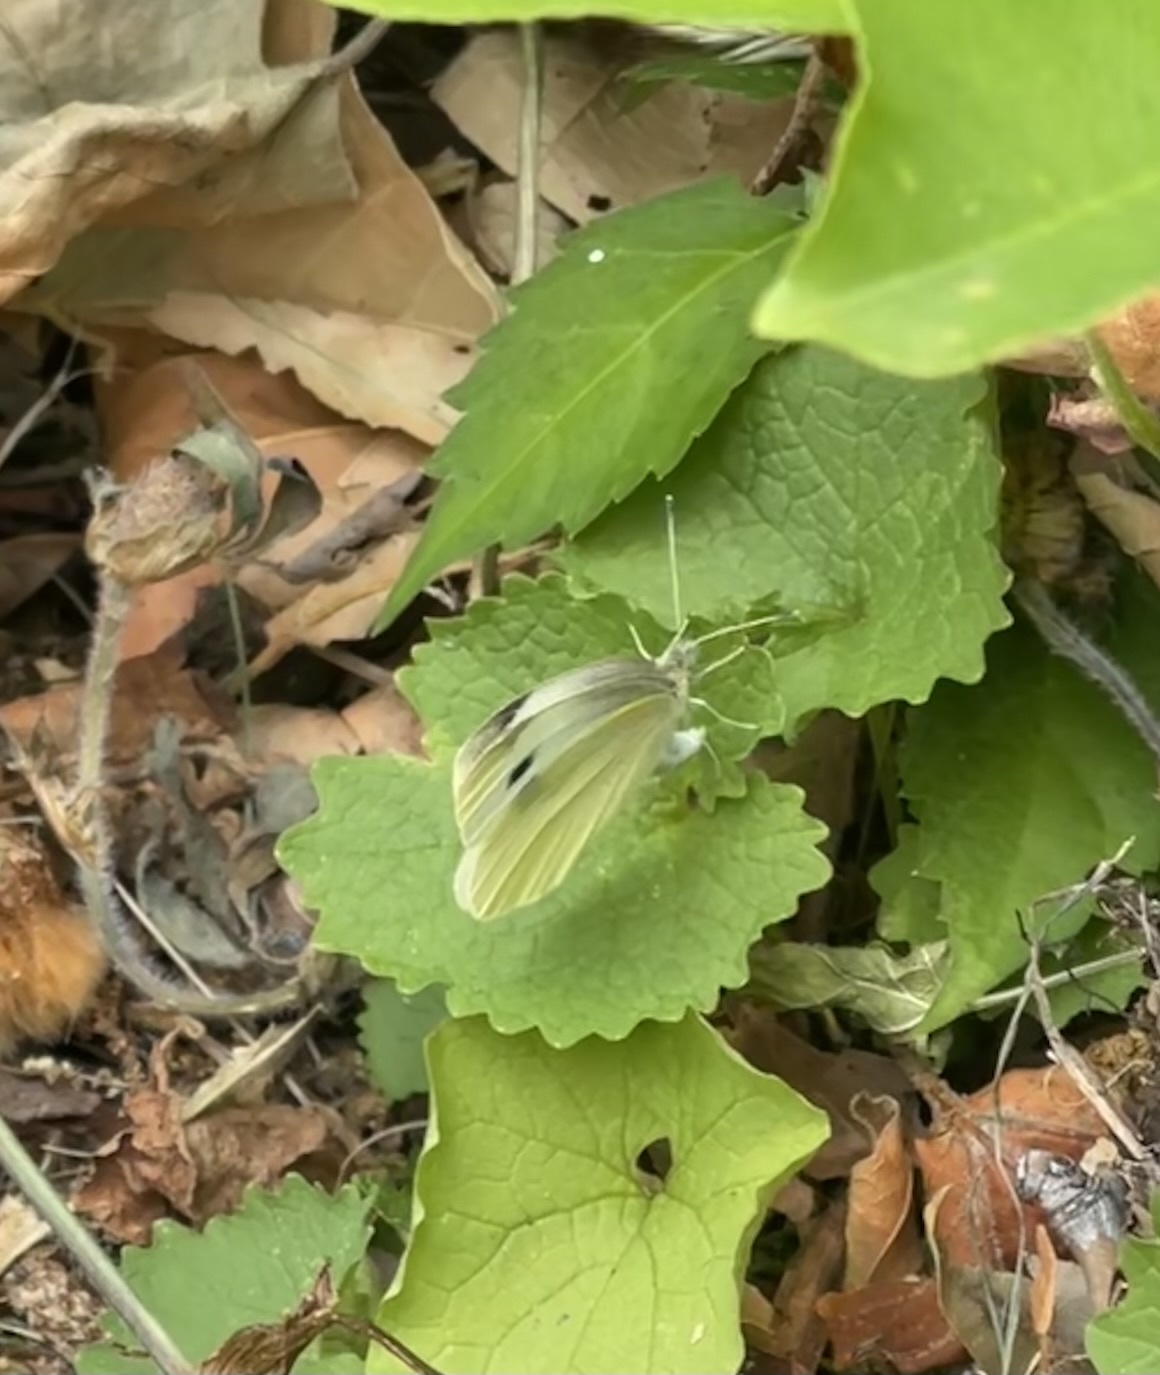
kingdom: Animalia
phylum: Arthropoda
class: Insecta
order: Lepidoptera
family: Pieridae
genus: Pieris
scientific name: Pieris rapae
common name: Small white
